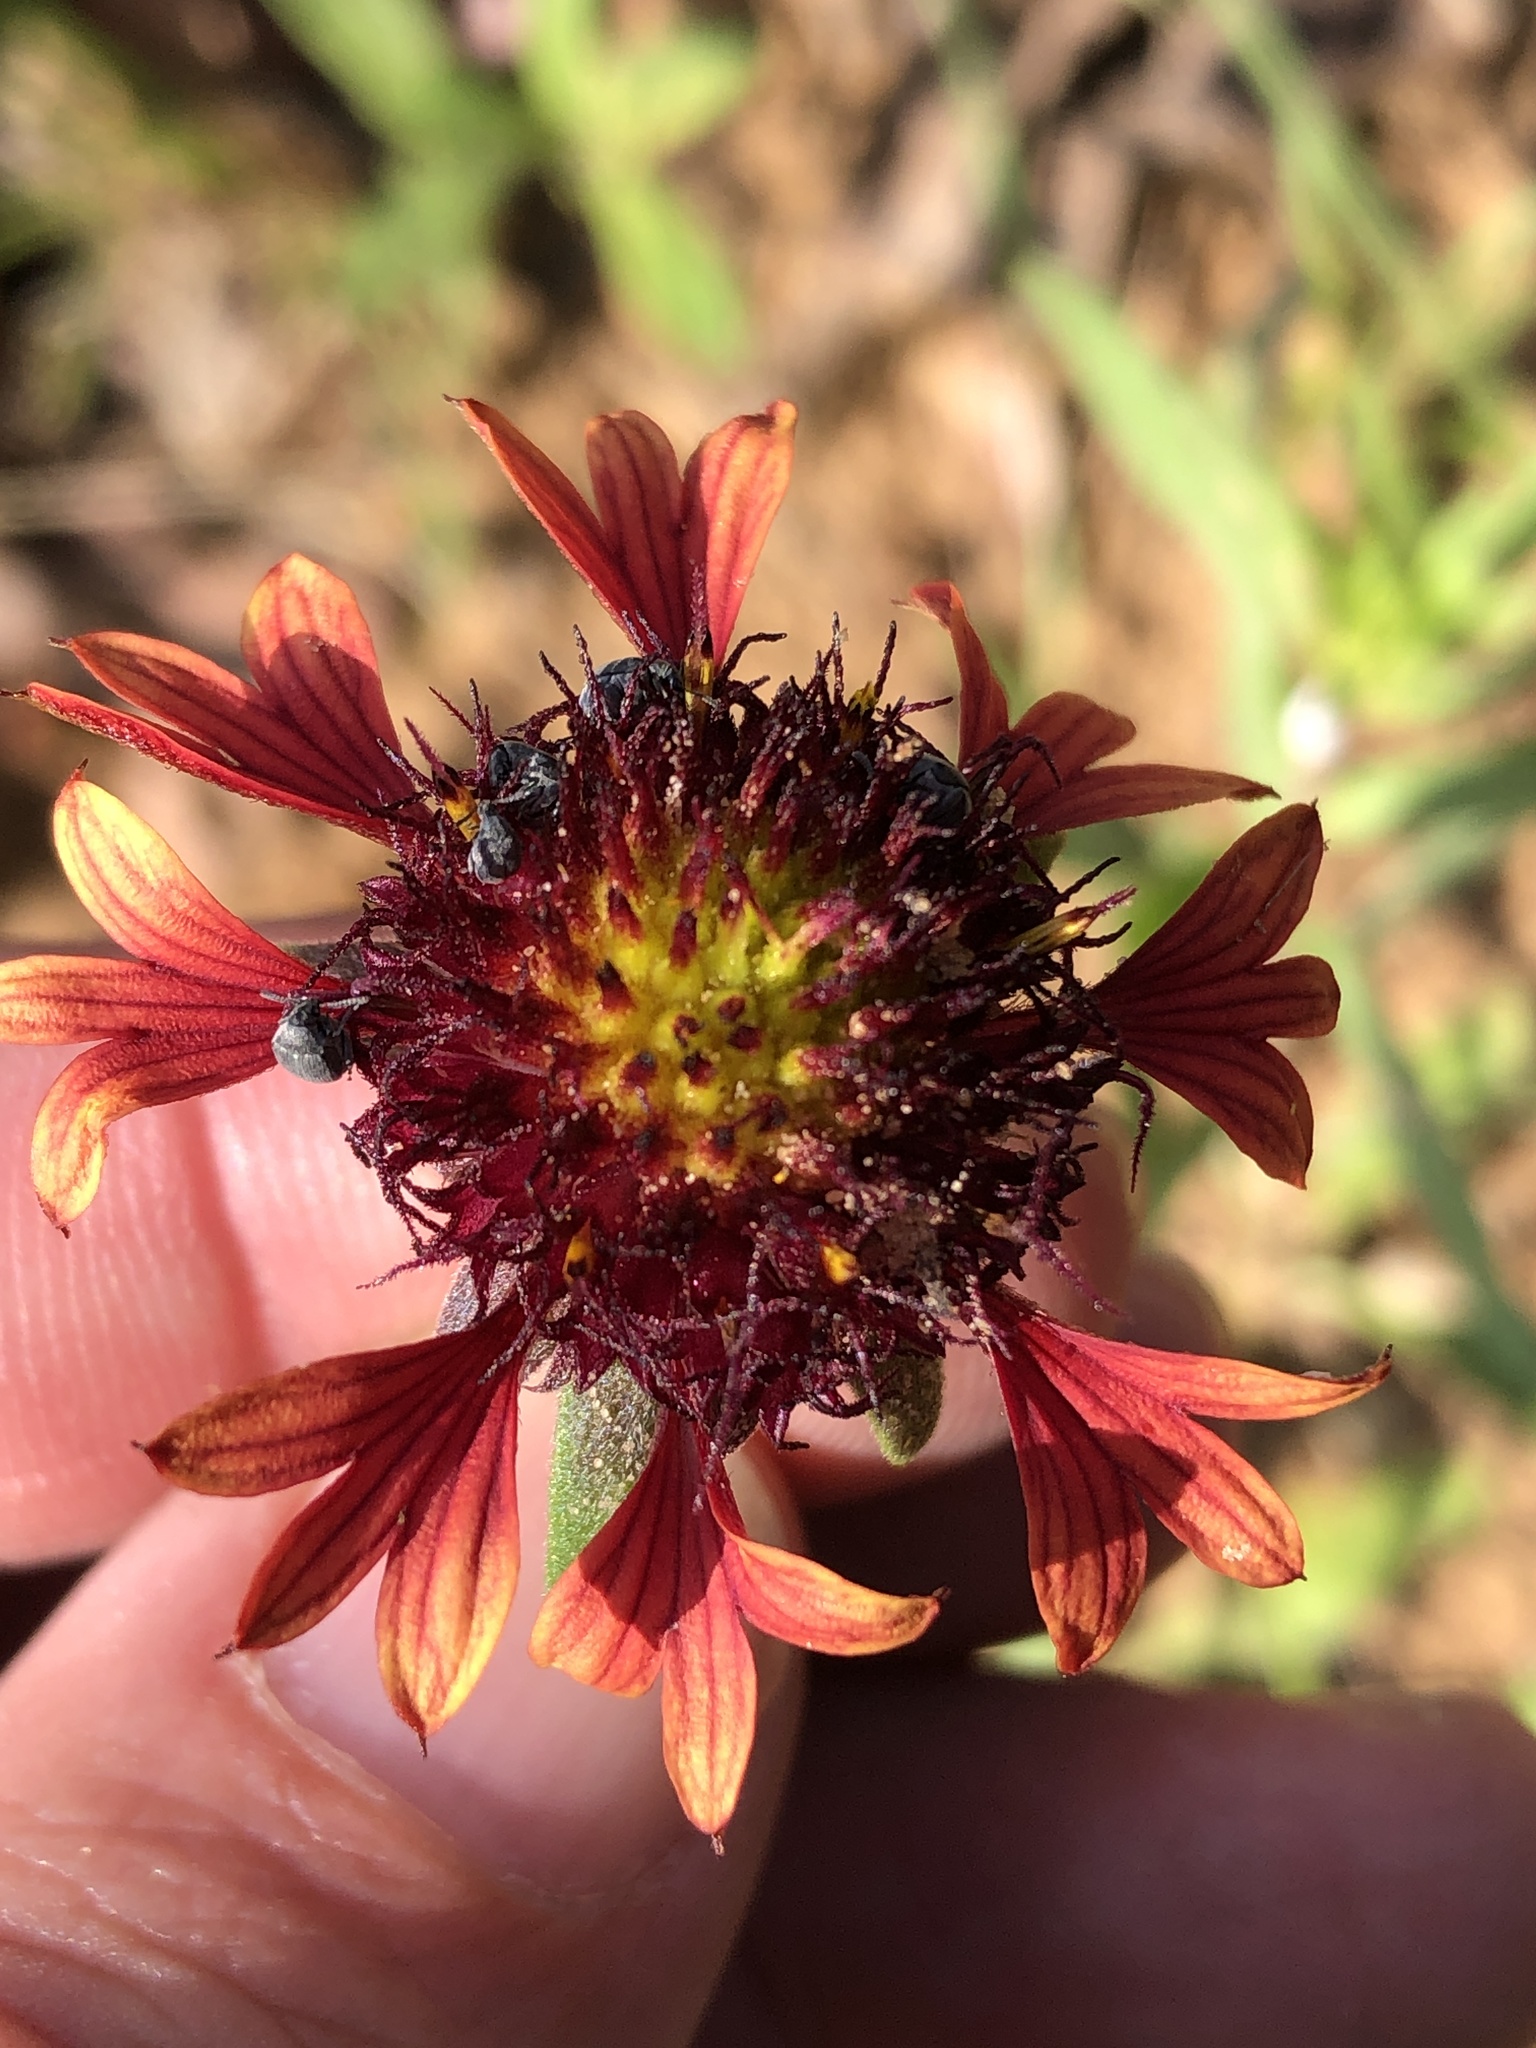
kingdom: Plantae
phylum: Tracheophyta
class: Magnoliopsida
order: Asterales
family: Asteraceae
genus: Gaillardia
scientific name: Gaillardia aestivalis
